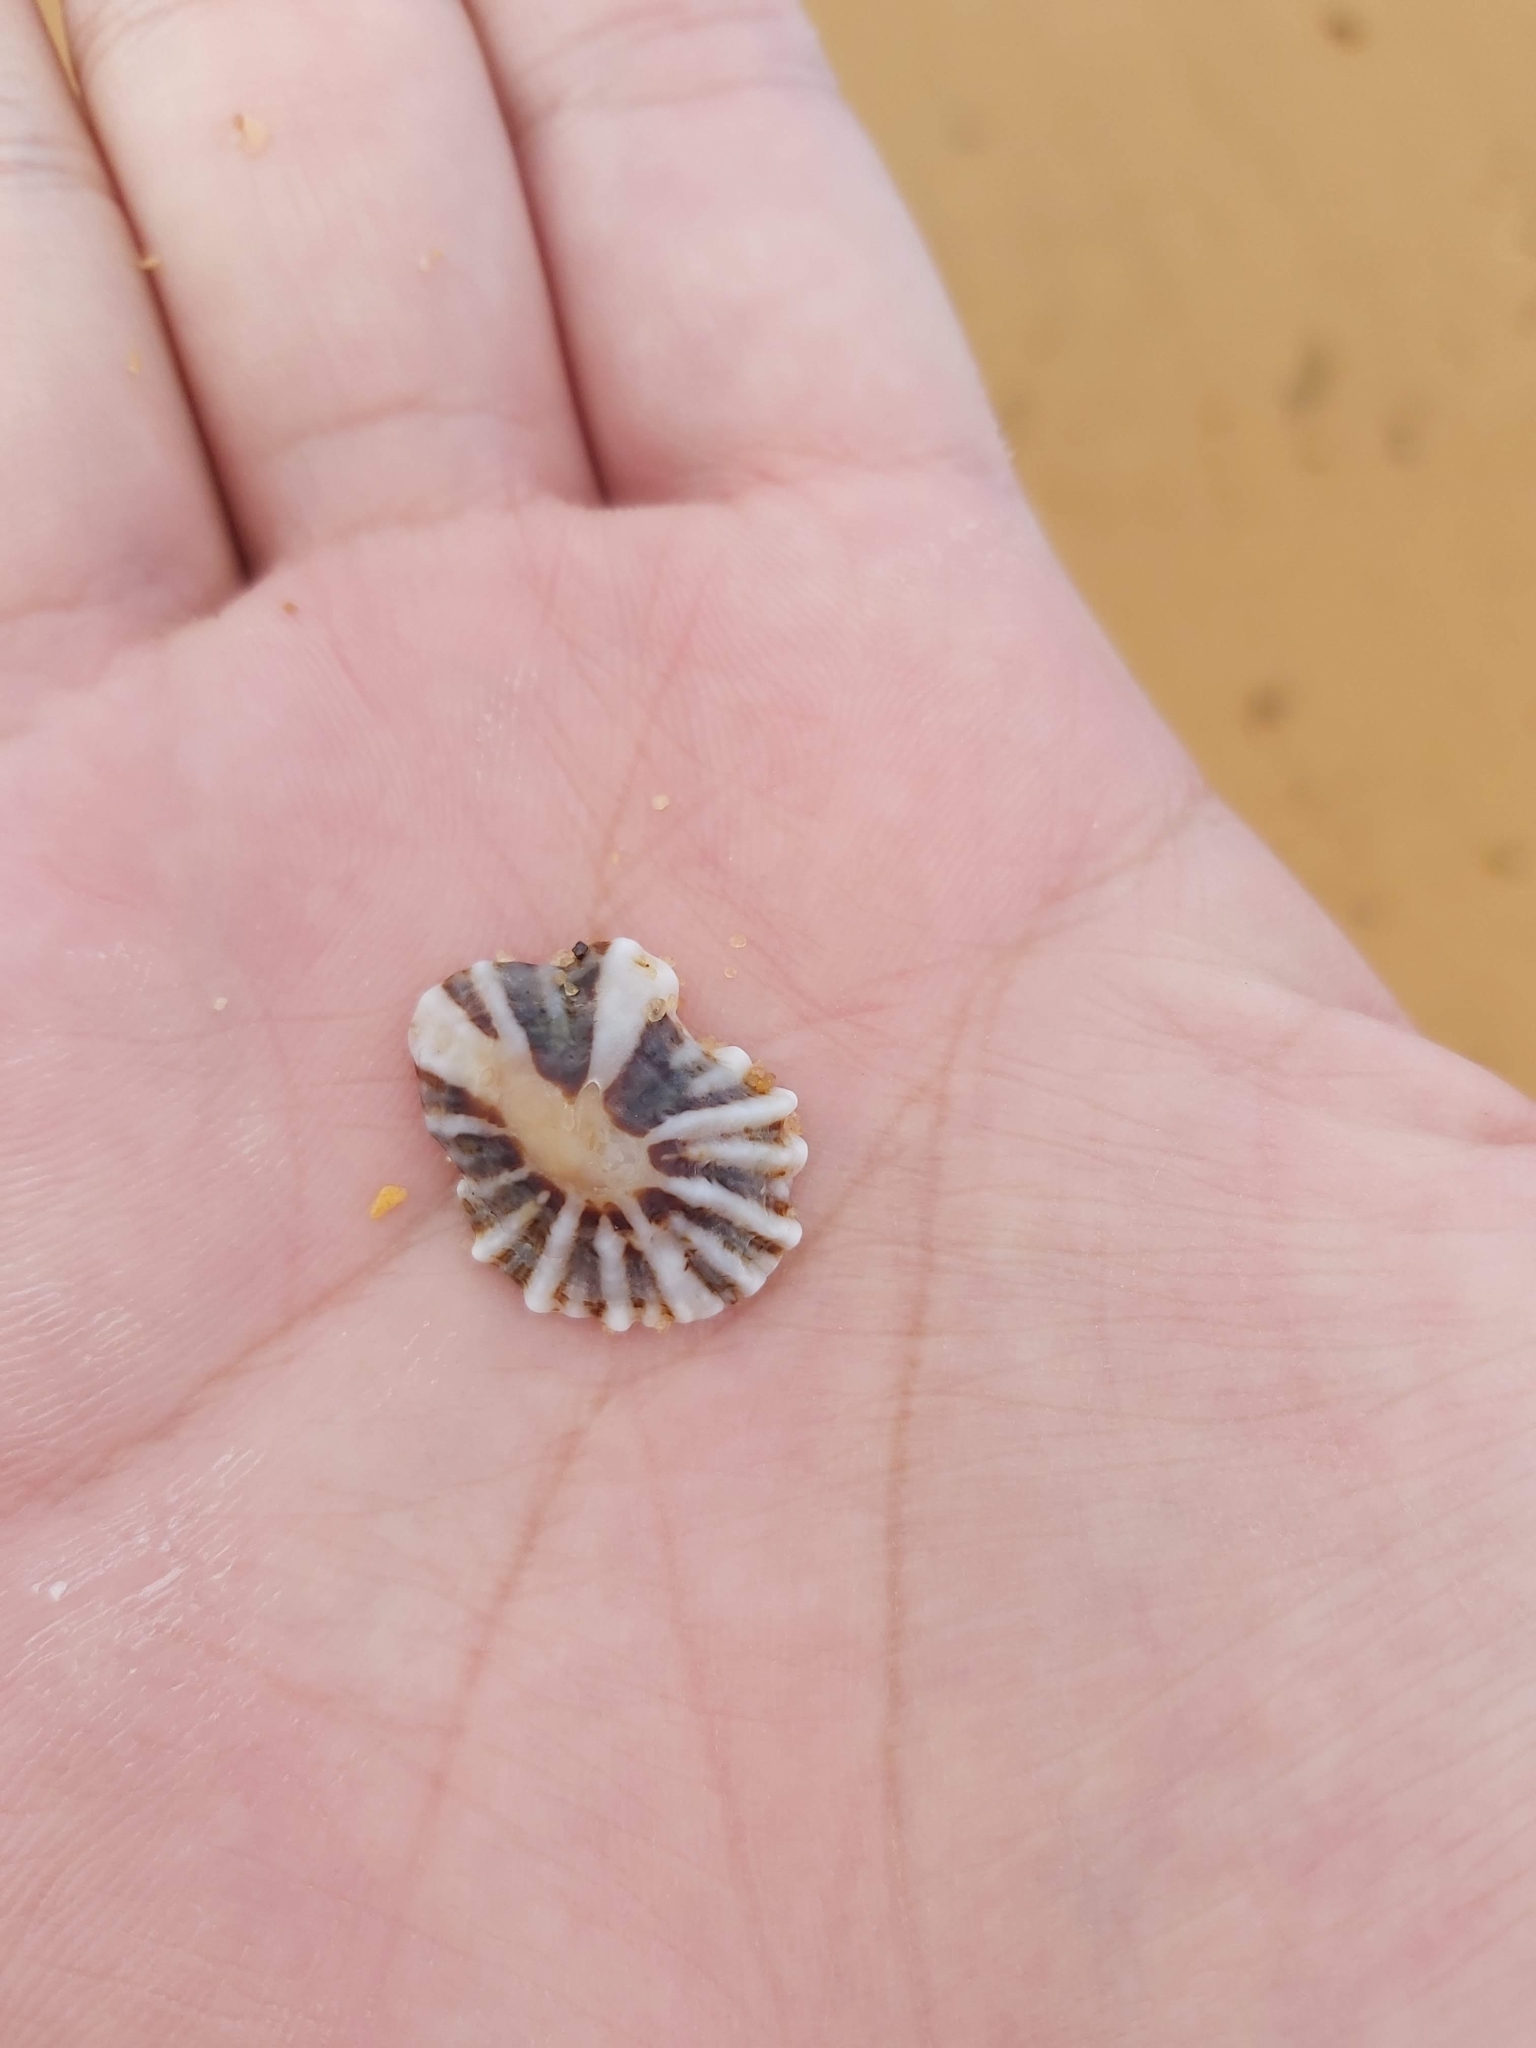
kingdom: Animalia
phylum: Mollusca
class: Gastropoda
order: Siphonariida
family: Siphonariidae
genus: Siphonaria
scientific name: Siphonaria denticulata
